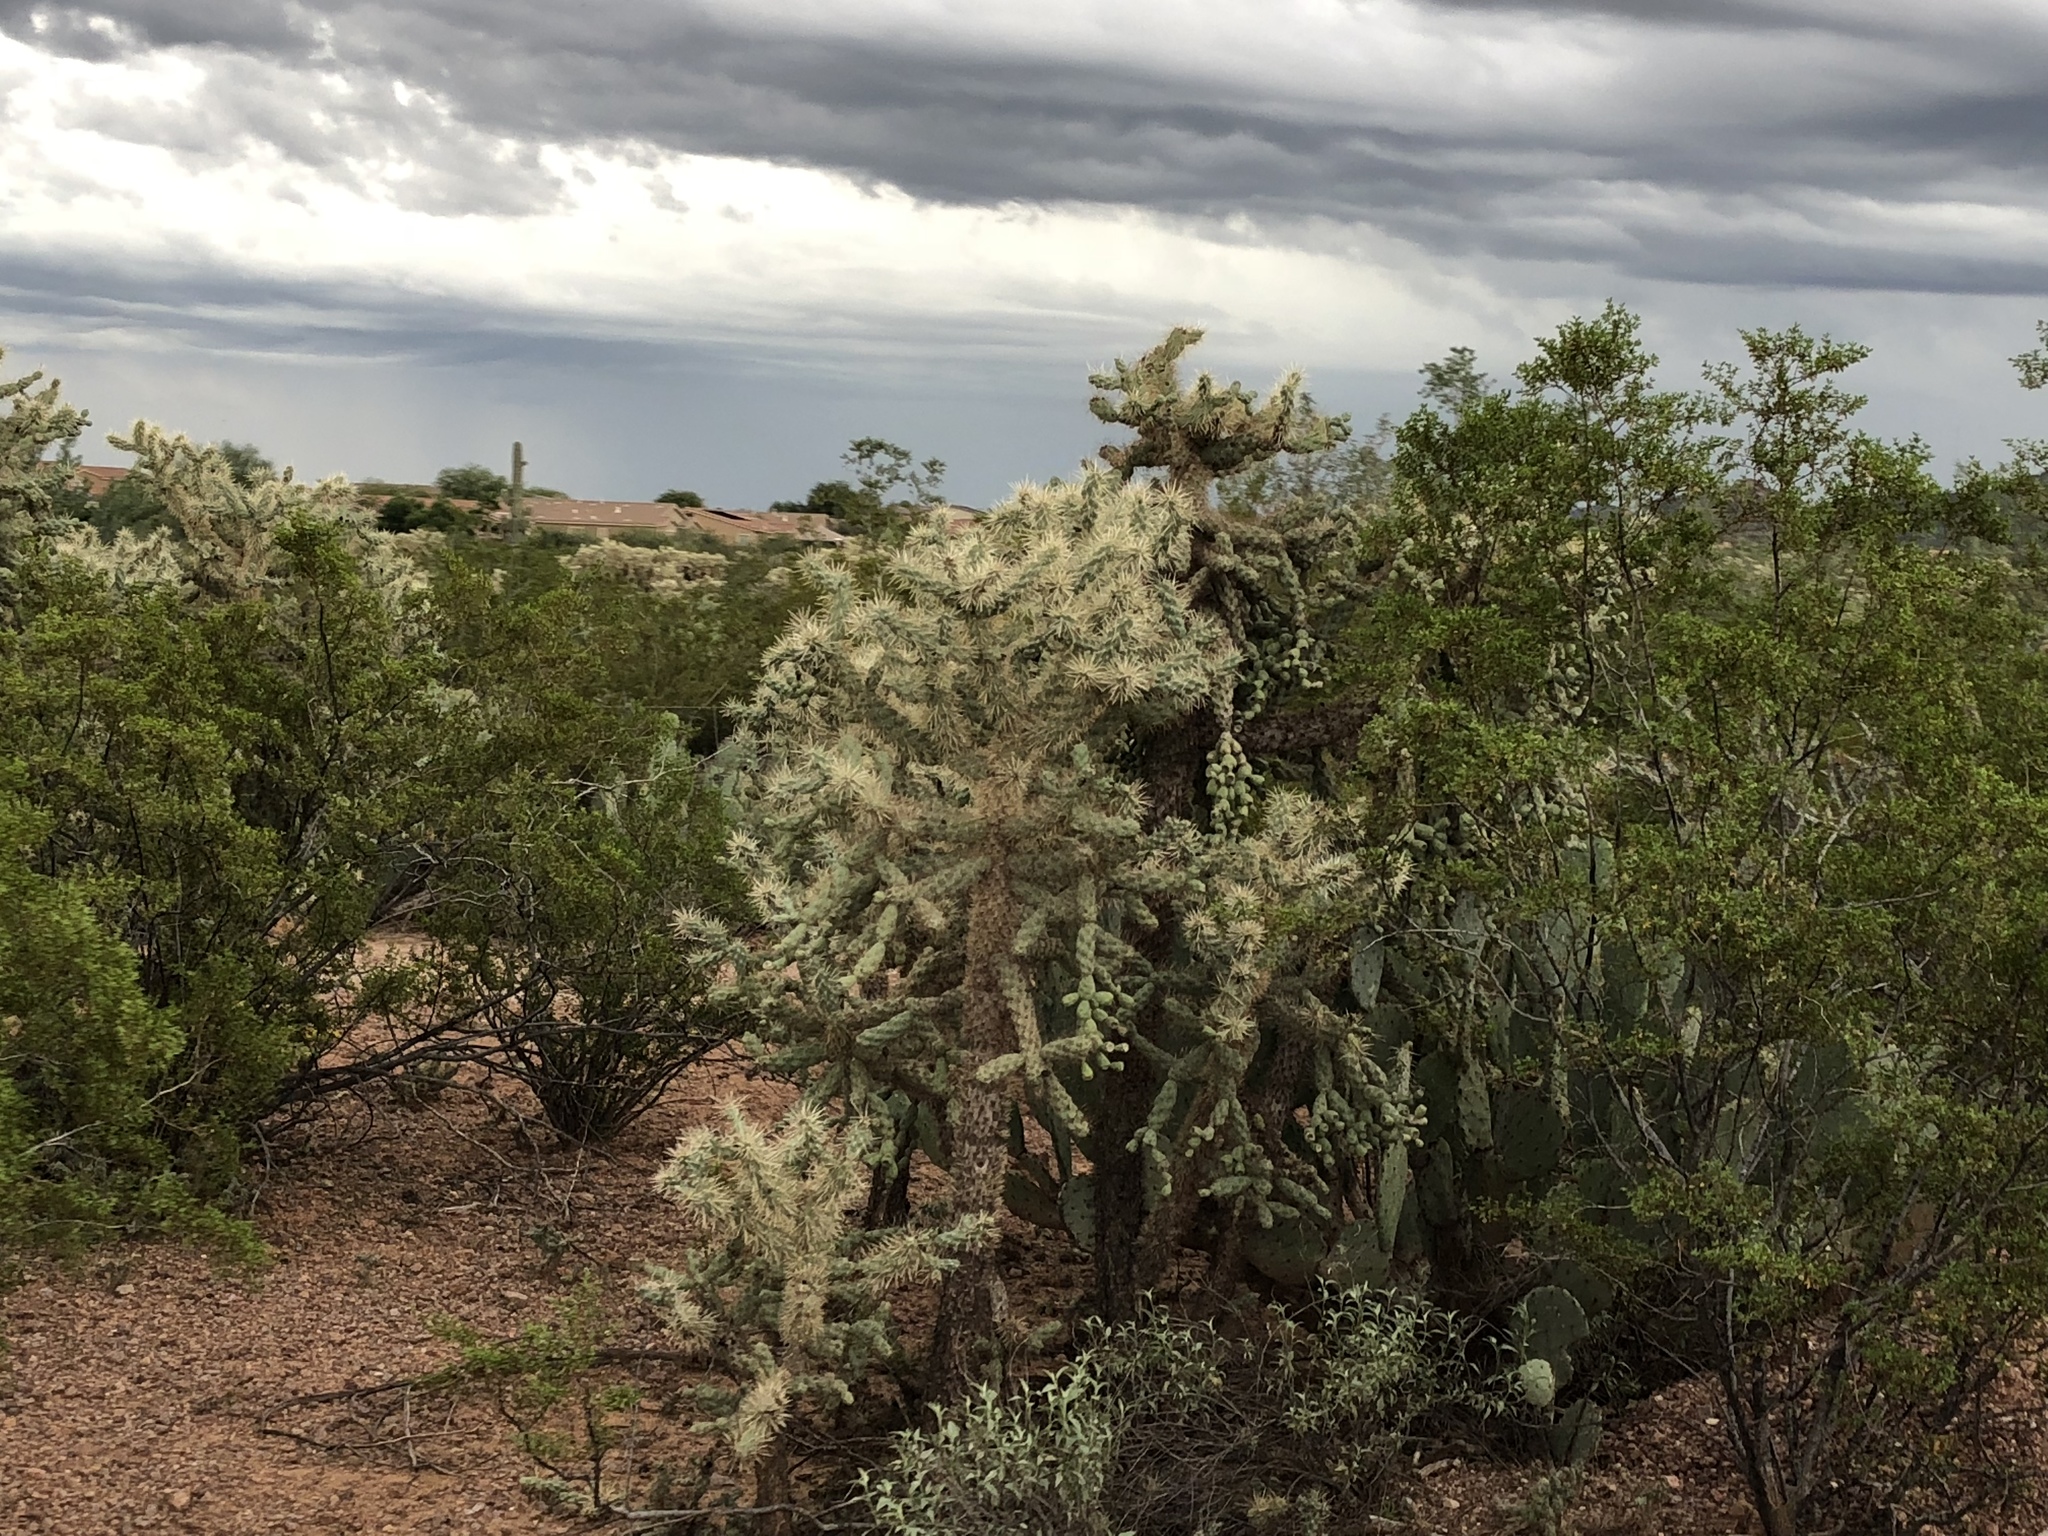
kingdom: Plantae
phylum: Tracheophyta
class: Magnoliopsida
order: Caryophyllales
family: Cactaceae
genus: Cylindropuntia
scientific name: Cylindropuntia fulgida
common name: Jumping cholla
